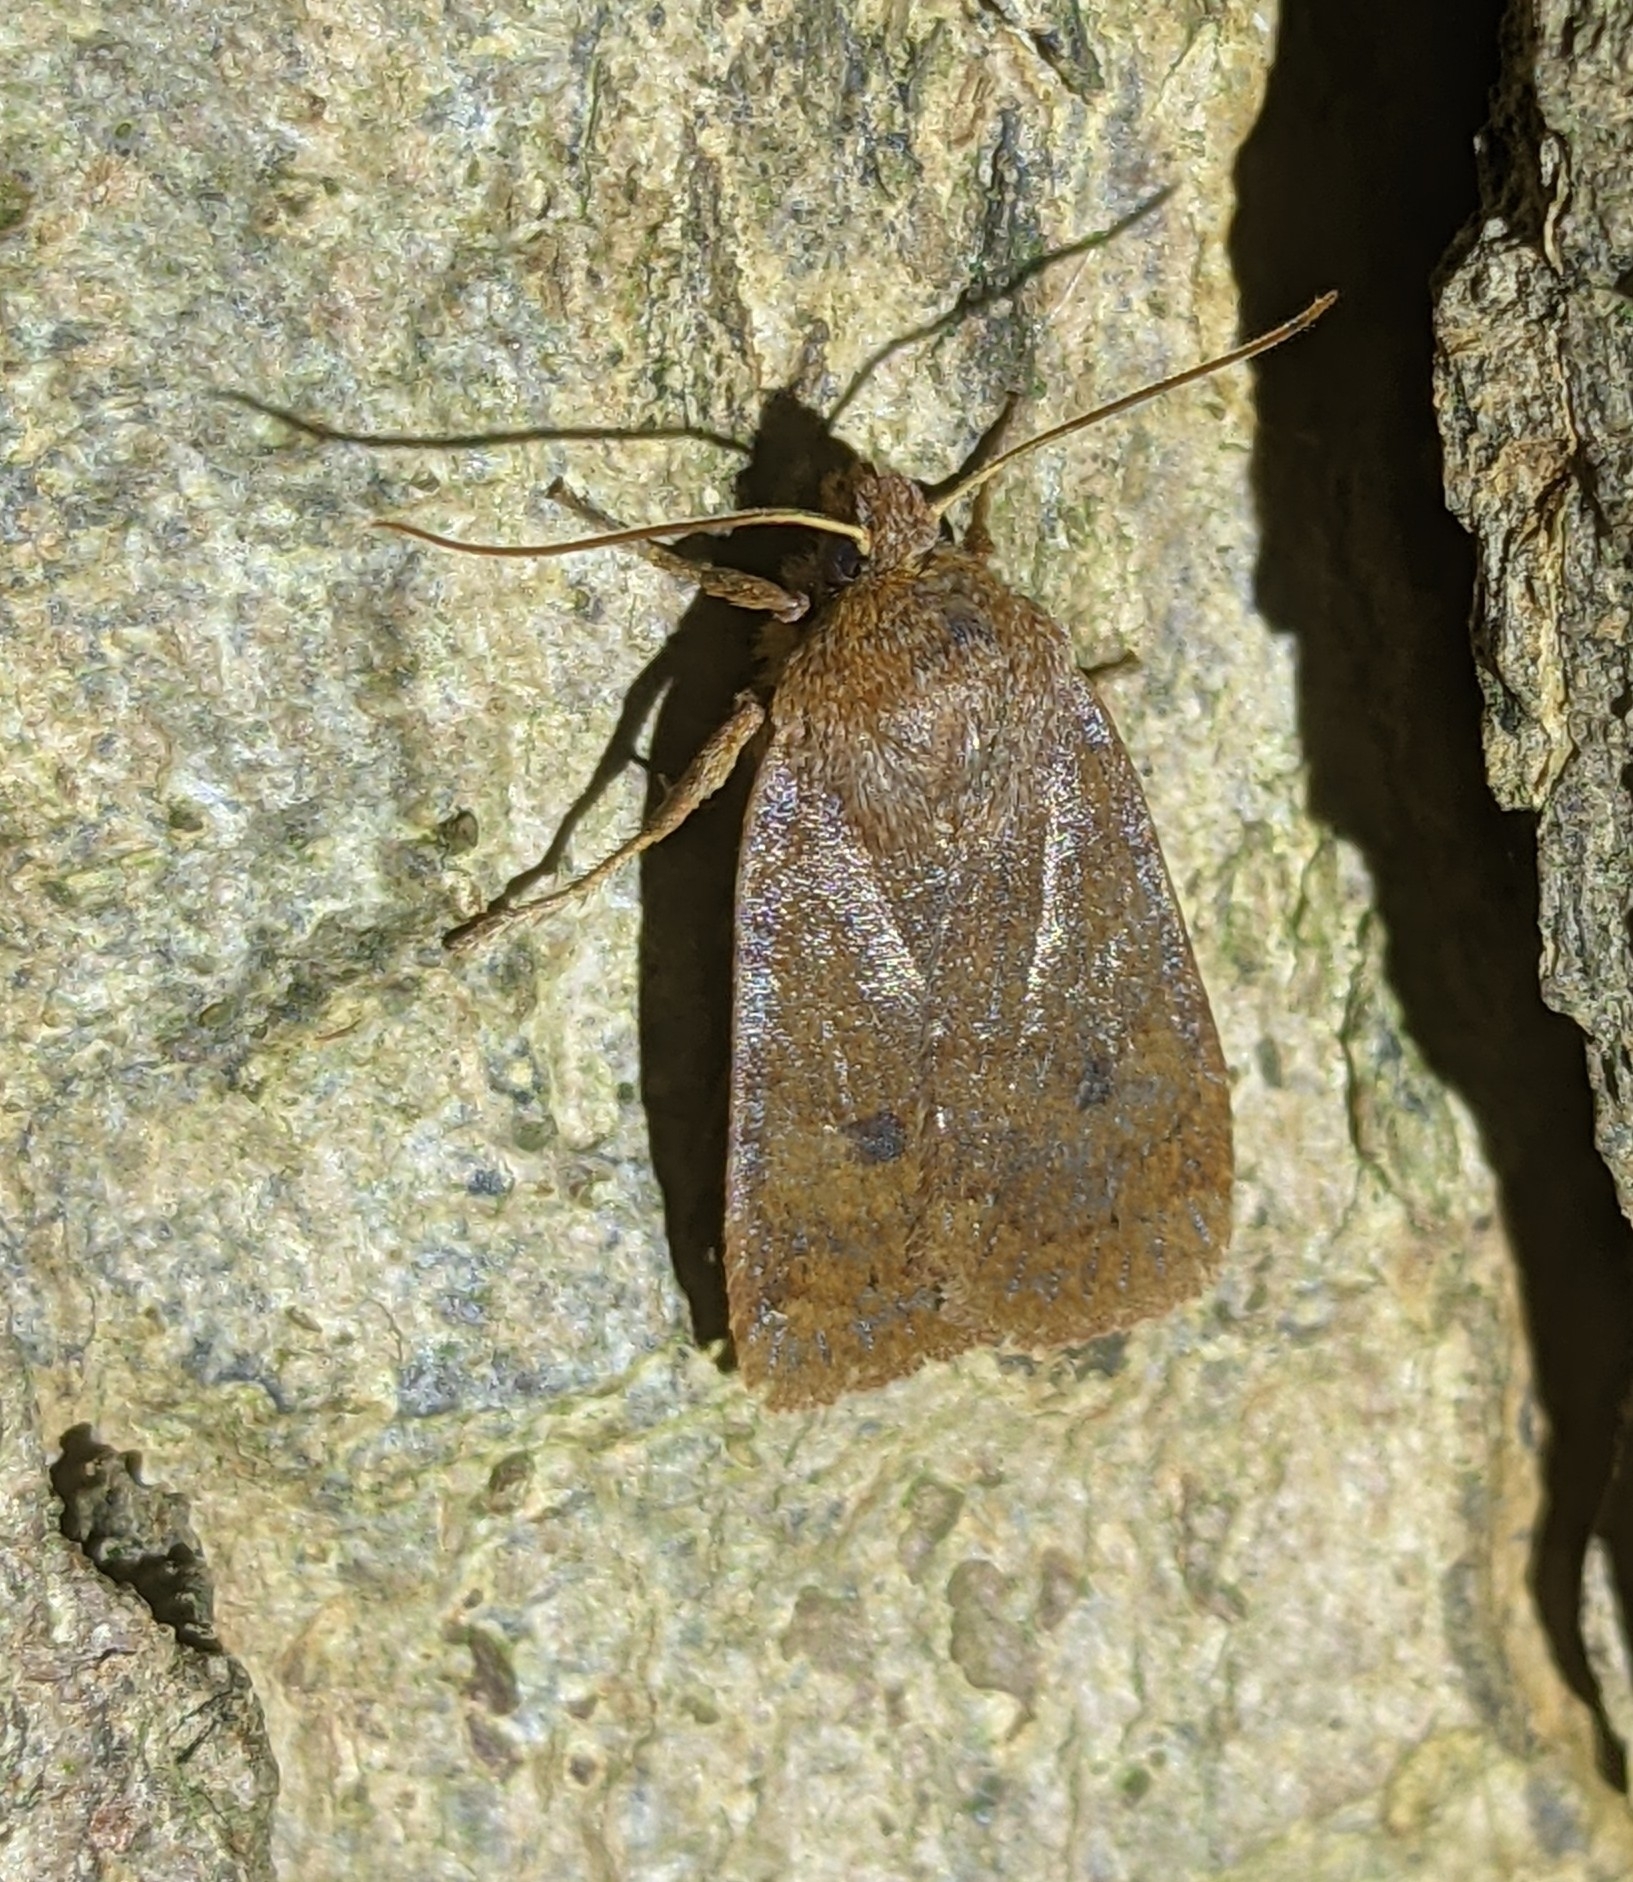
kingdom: Animalia
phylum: Arthropoda
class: Insecta
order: Lepidoptera
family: Noctuidae
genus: Conistra
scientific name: Conistra vaccinii
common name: Chestnut
